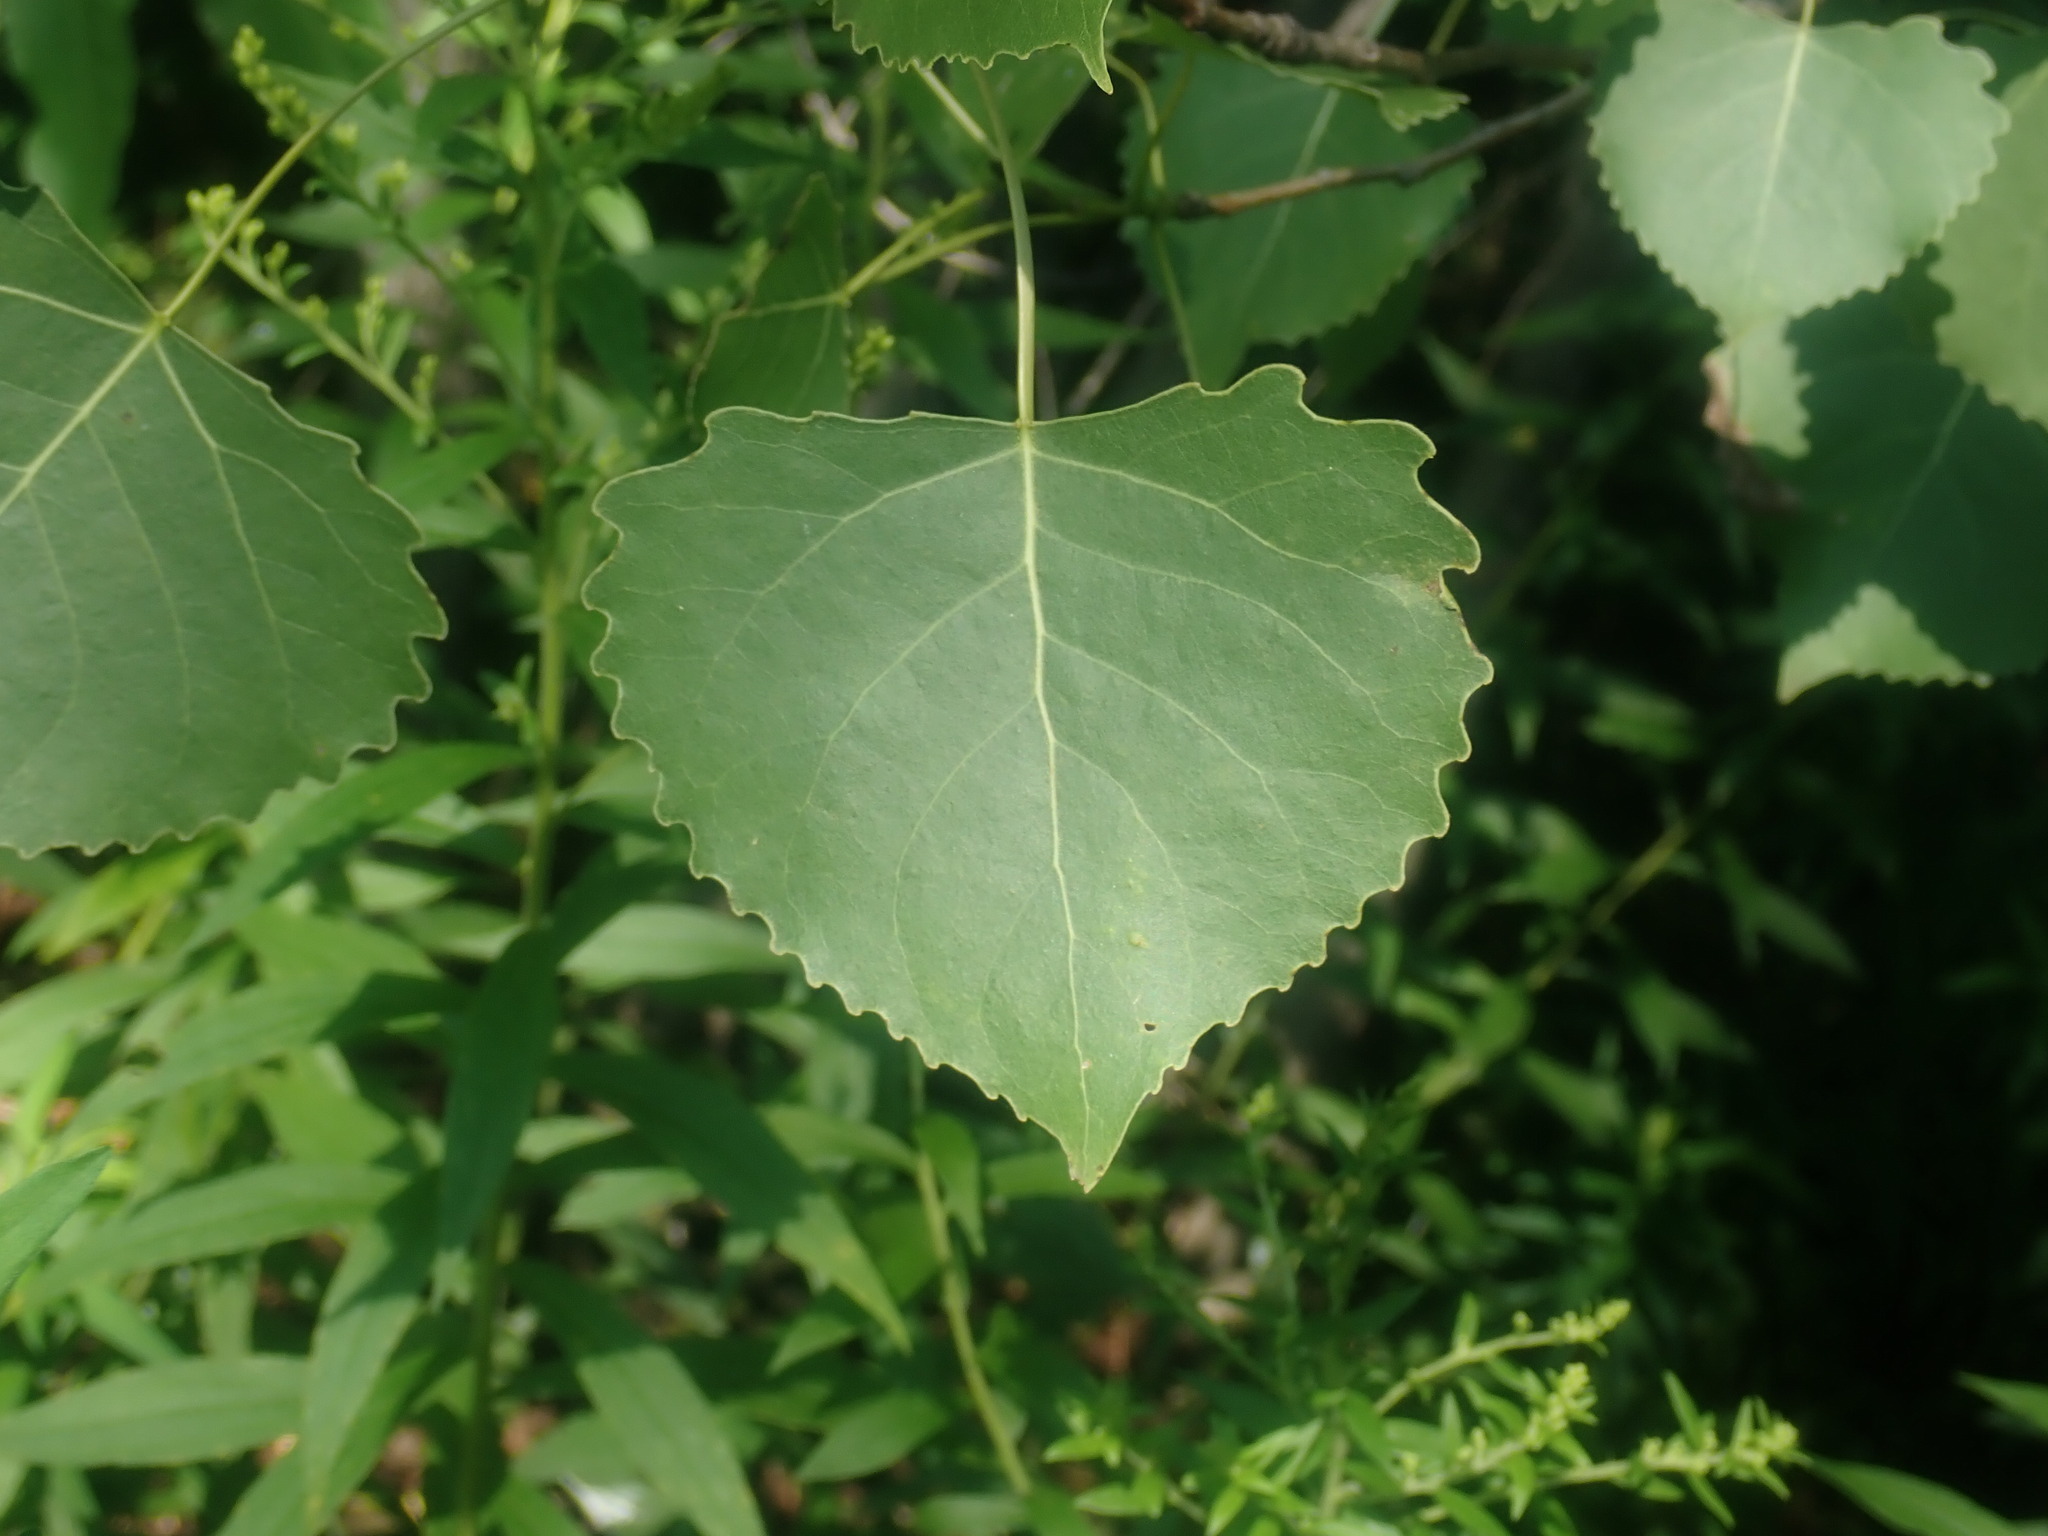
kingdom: Plantae
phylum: Tracheophyta
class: Magnoliopsida
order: Malpighiales
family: Salicaceae
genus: Populus
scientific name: Populus deltoides
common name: Eastern cottonwood
